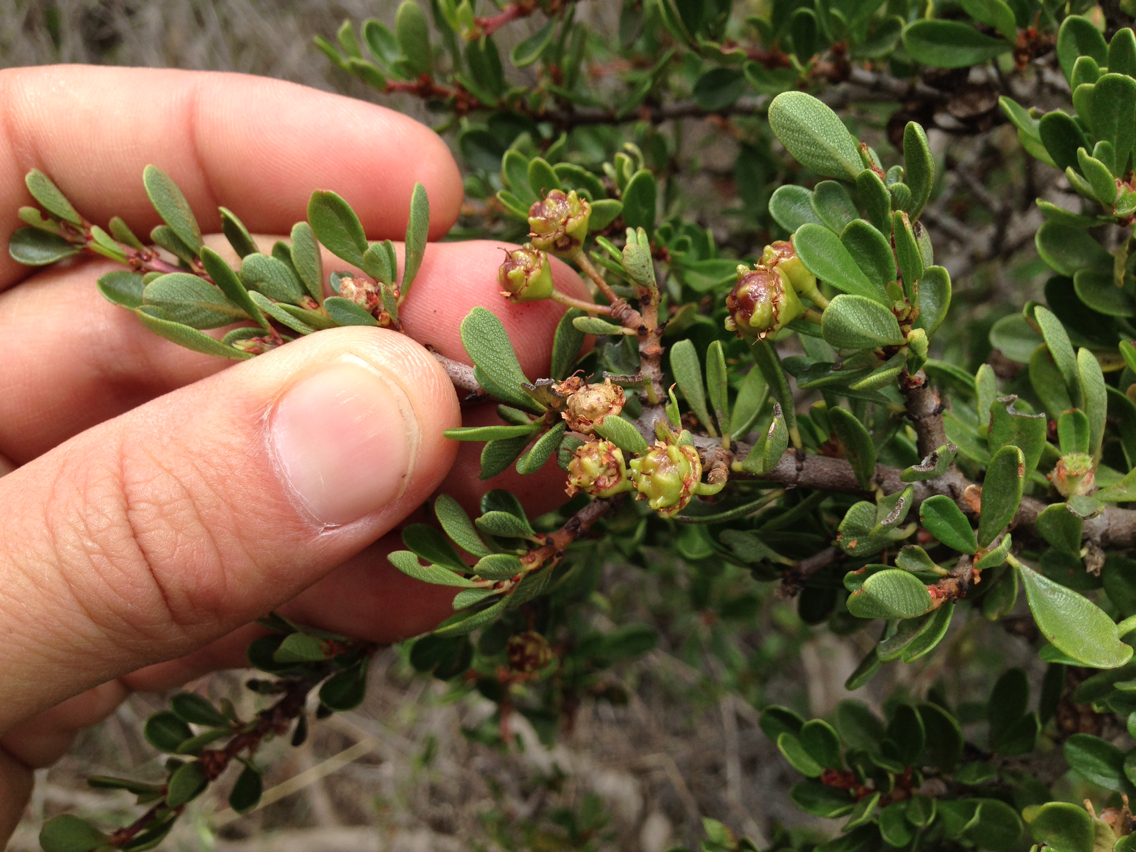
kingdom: Plantae
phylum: Tracheophyta
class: Magnoliopsida
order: Rosales
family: Rhamnaceae
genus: Ceanothus
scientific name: Ceanothus cuneatus
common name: Cuneate ceanothus
